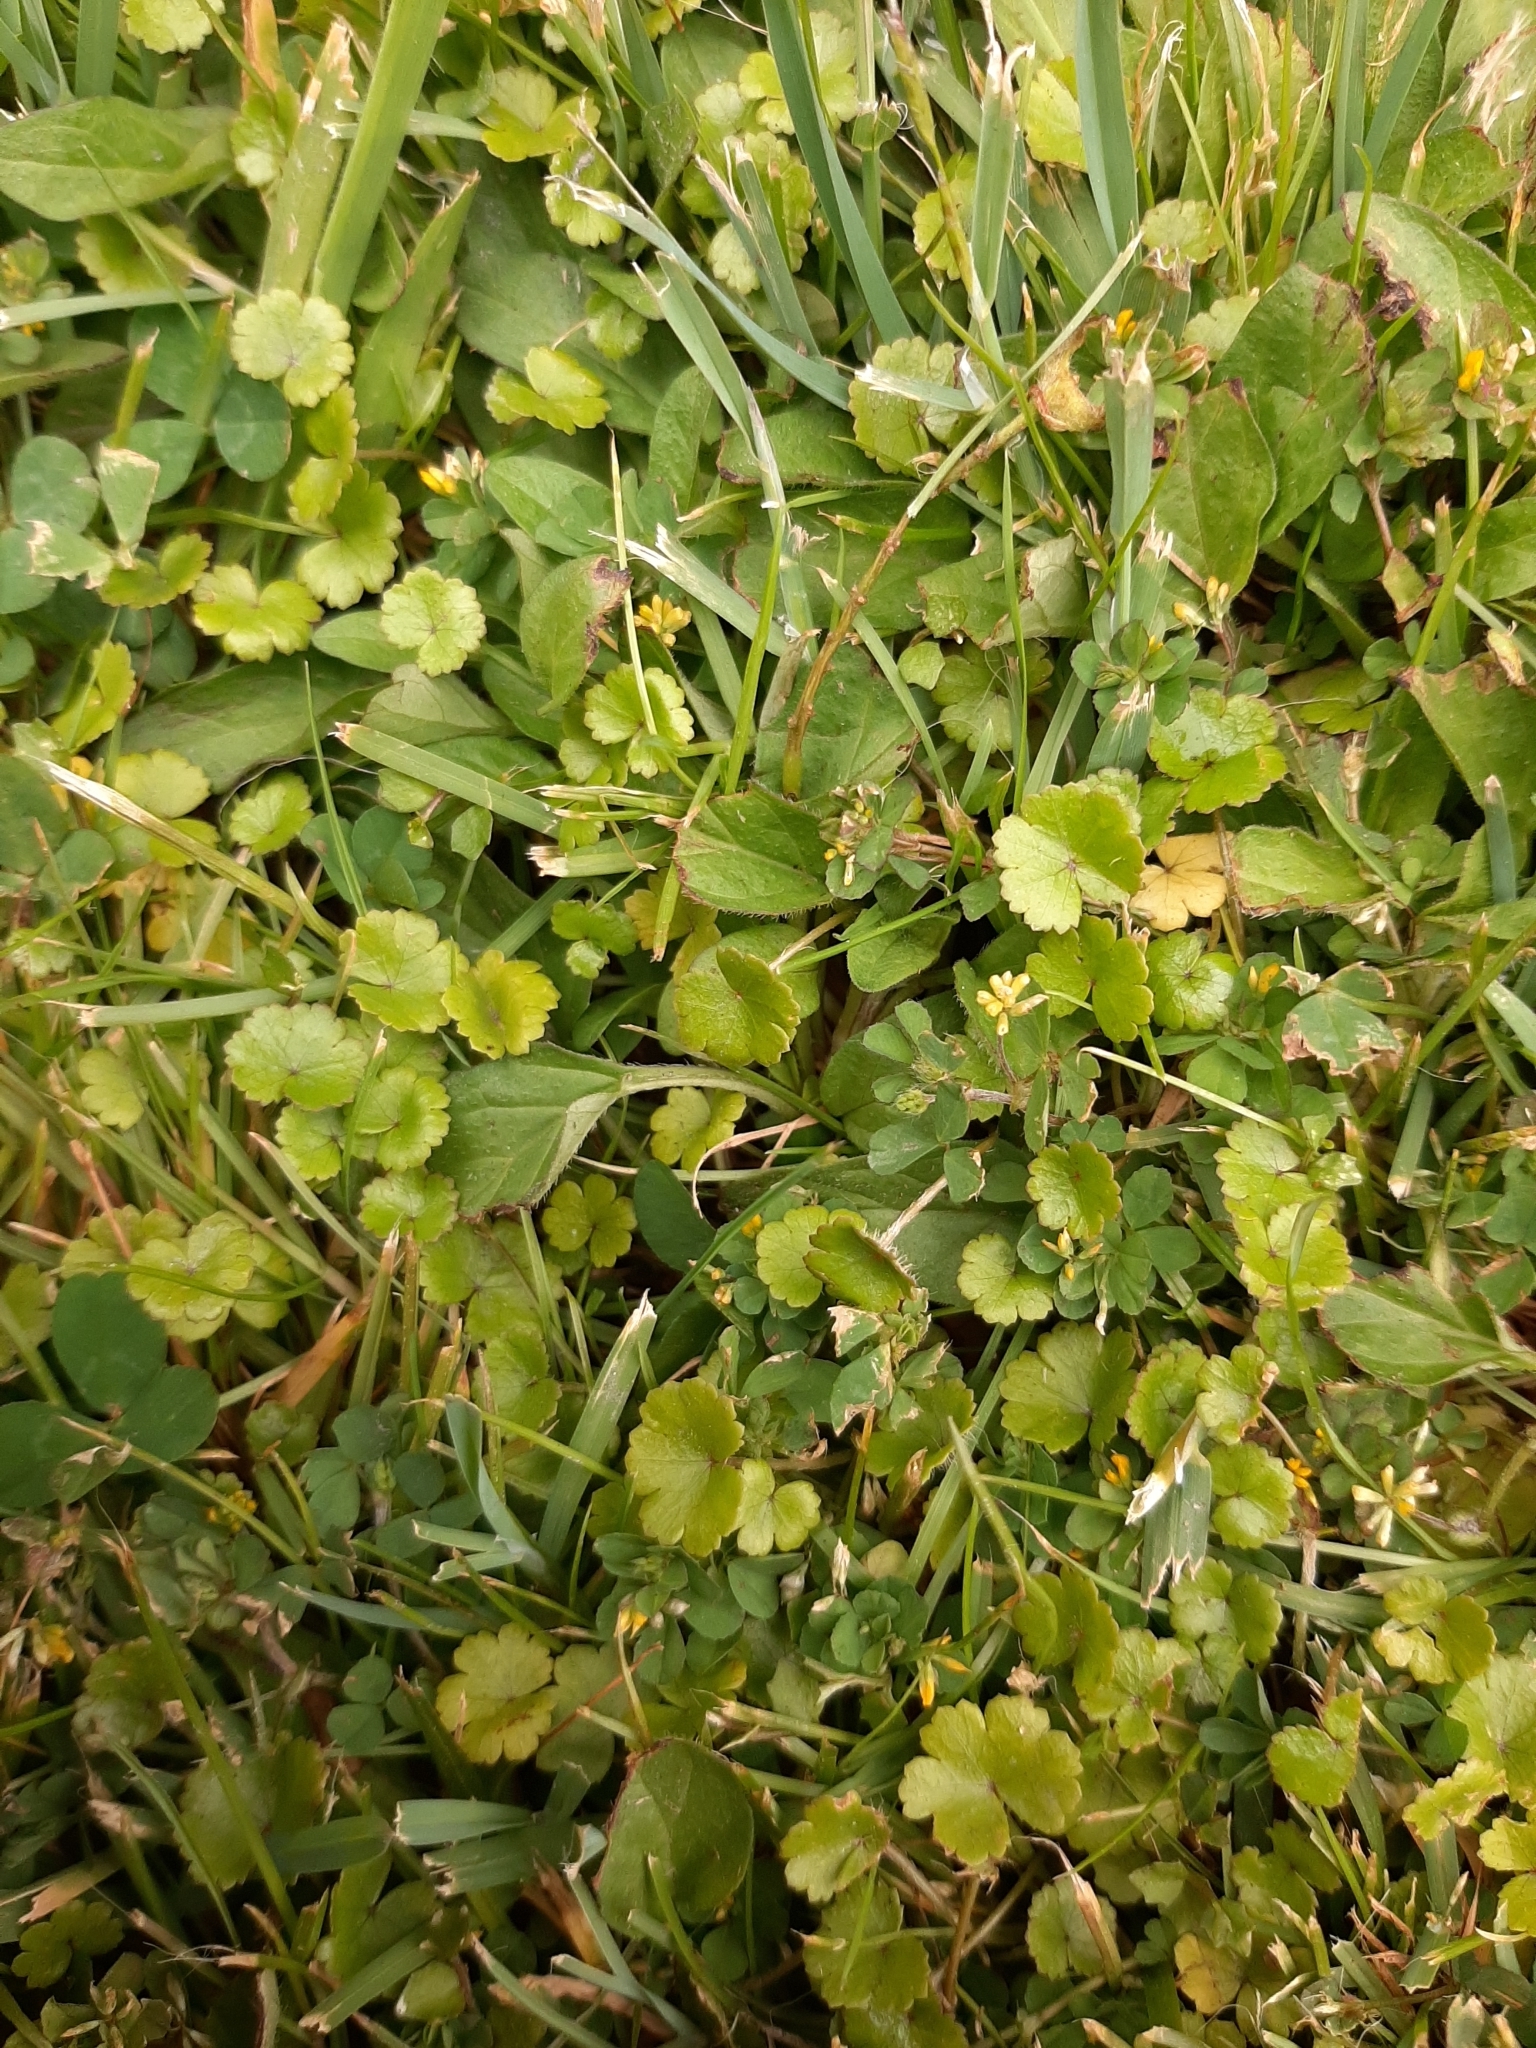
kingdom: Plantae
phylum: Tracheophyta
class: Magnoliopsida
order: Apiales
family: Araliaceae
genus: Hydrocotyle
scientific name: Hydrocotyle microphylla
